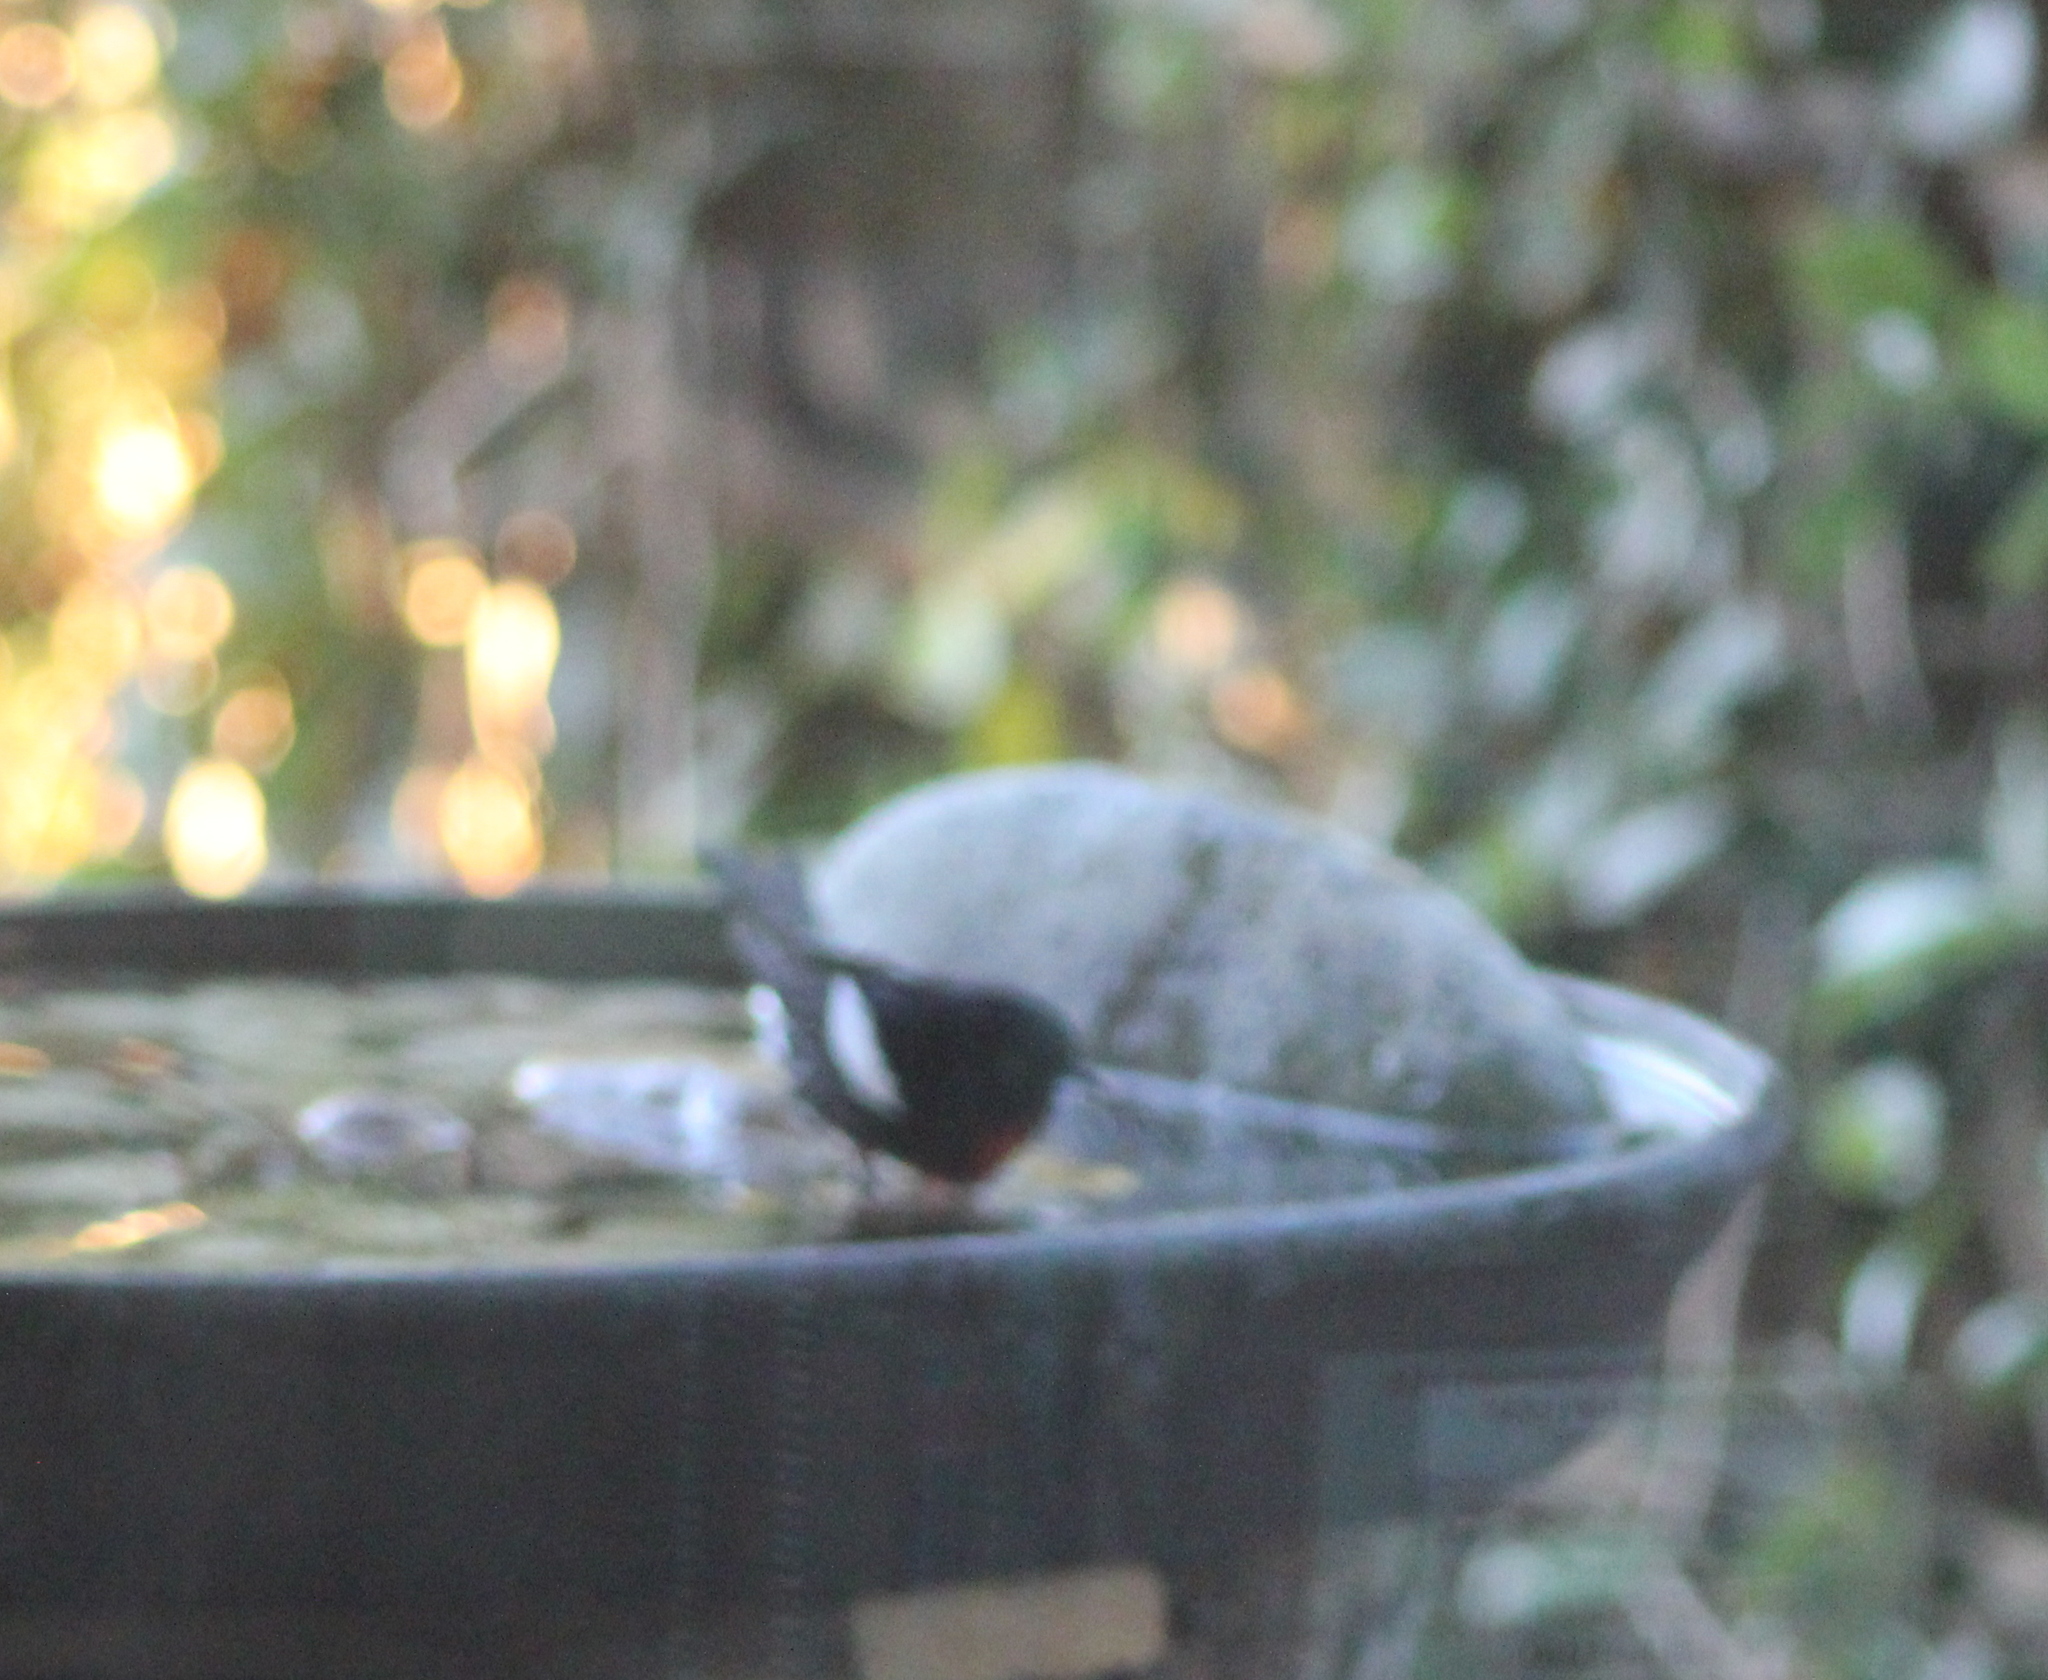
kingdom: Animalia
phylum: Chordata
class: Aves
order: Passeriformes
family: Parulidae
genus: Myioborus
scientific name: Myioborus pictus
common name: Painted whitestart
